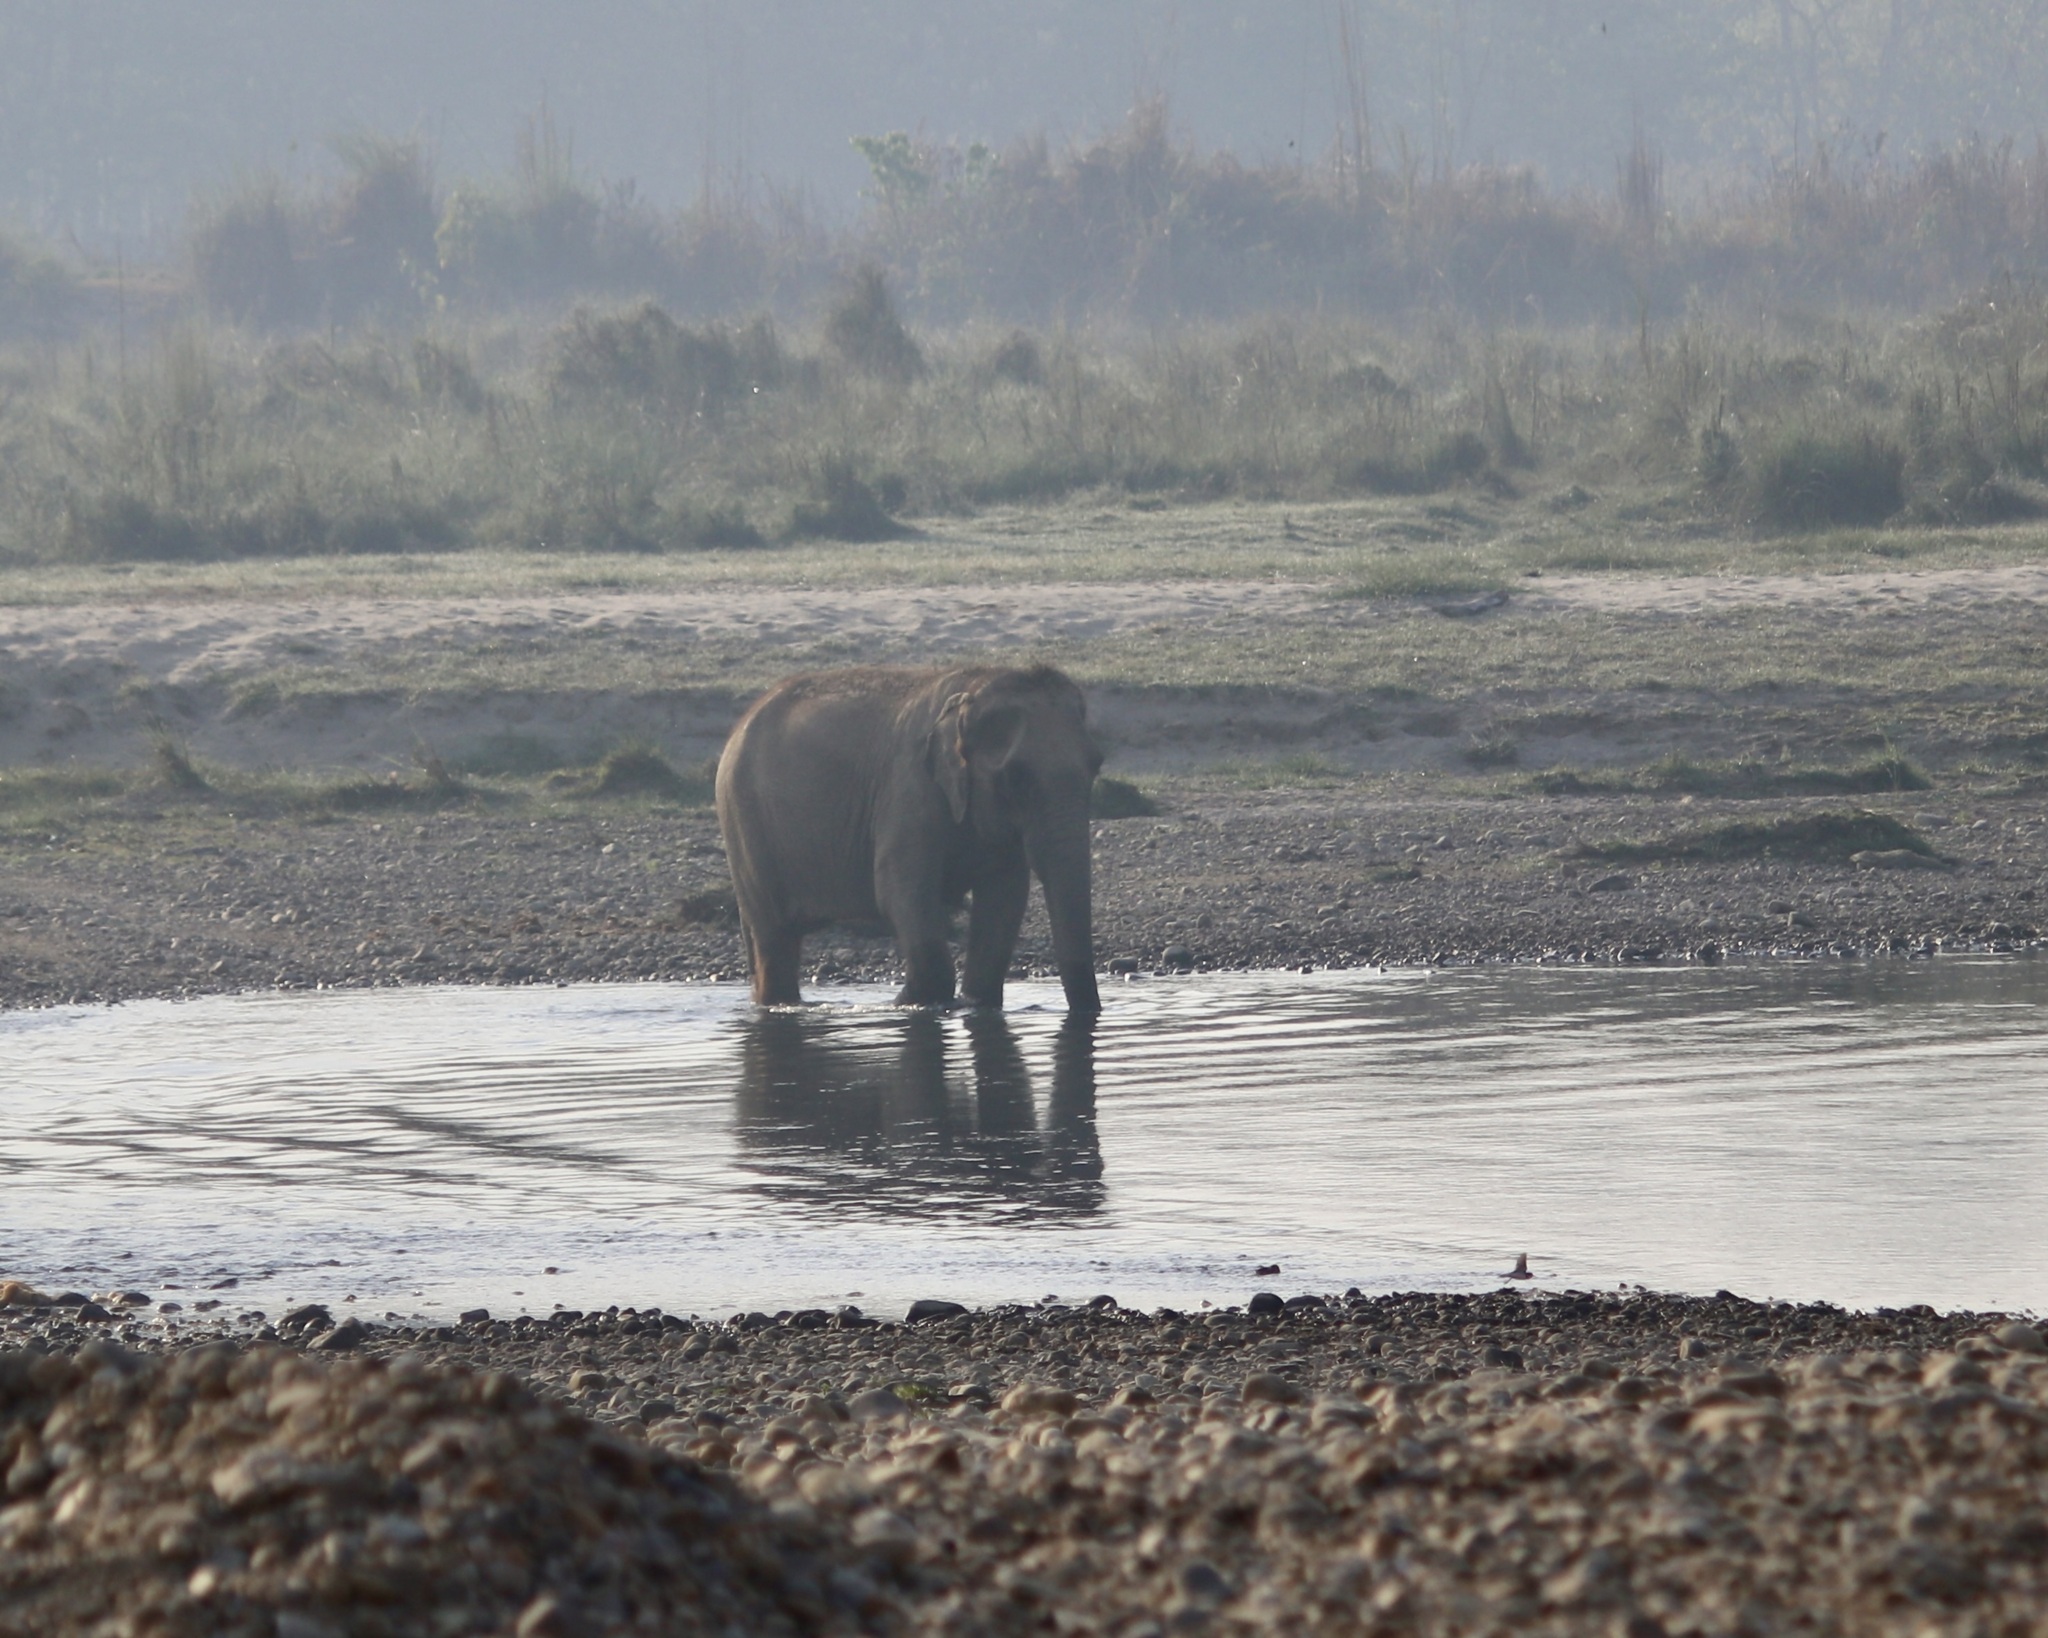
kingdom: Animalia
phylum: Chordata
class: Mammalia
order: Proboscidea
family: Elephantidae
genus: Elephas
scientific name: Elephas maximus
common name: Asian elephant
